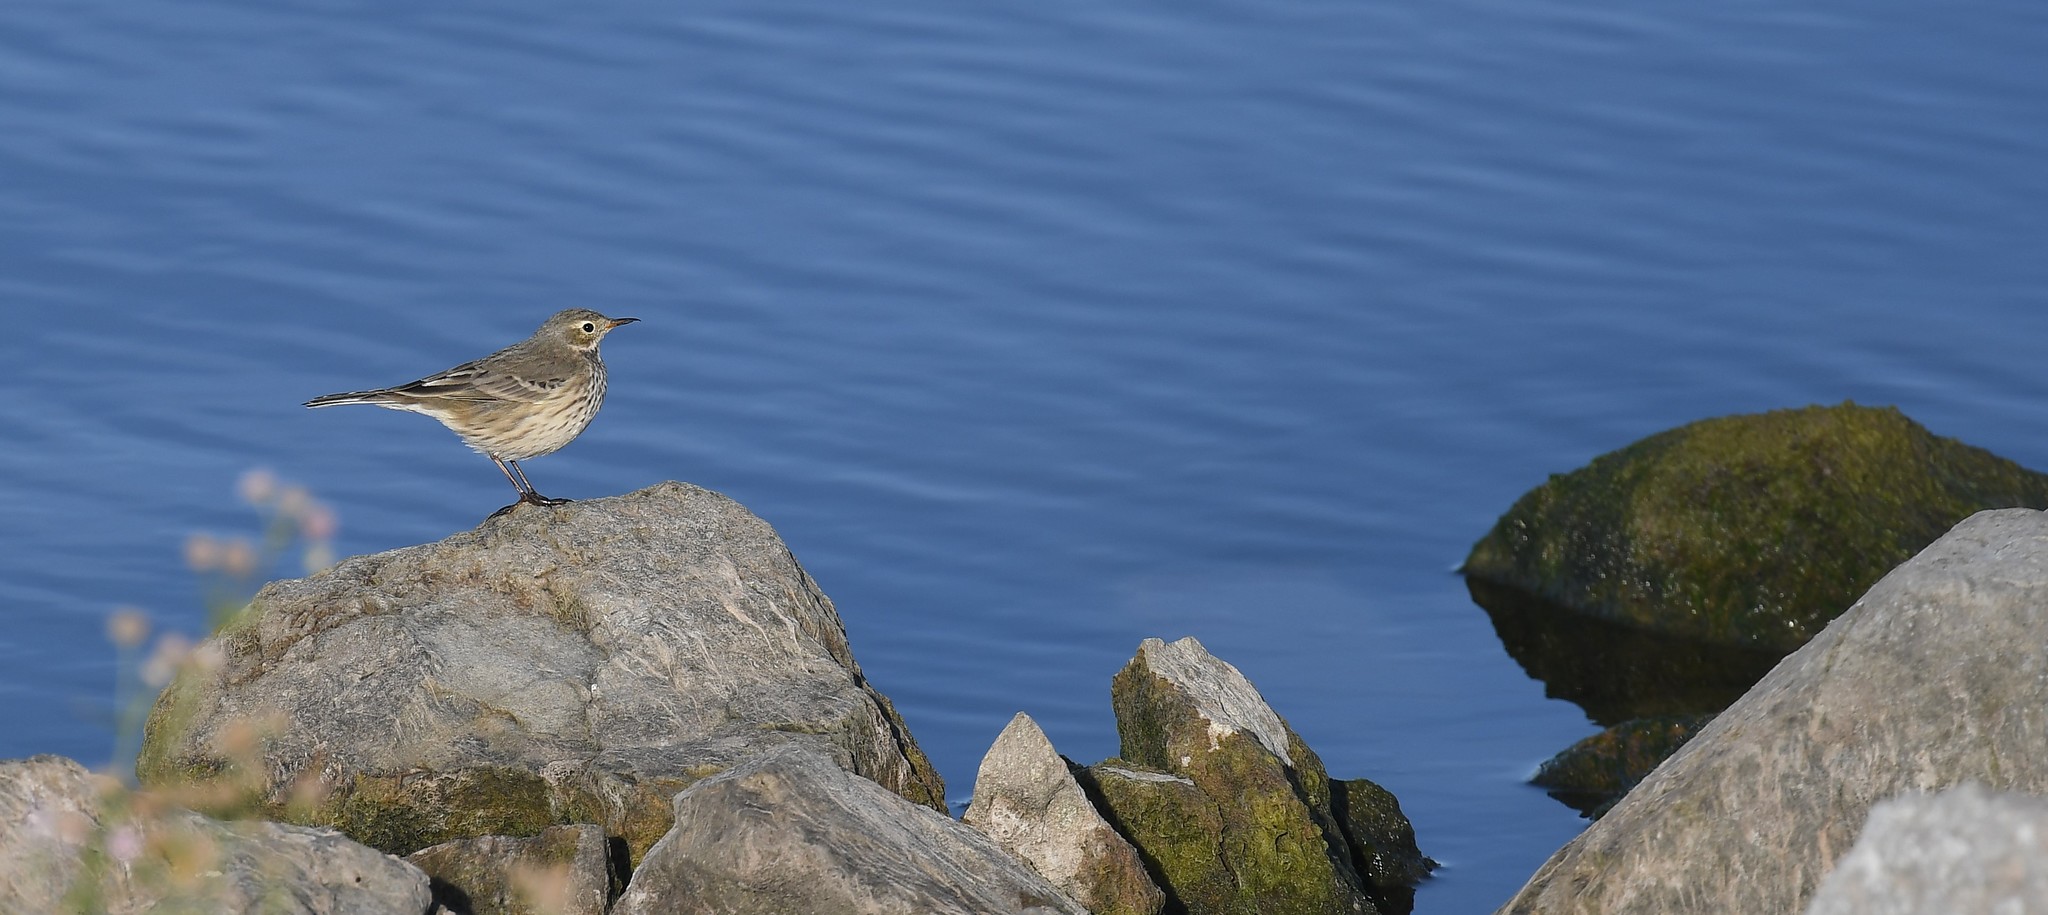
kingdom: Animalia
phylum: Chordata
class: Aves
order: Passeriformes
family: Motacillidae
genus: Anthus
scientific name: Anthus rubescens
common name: Buff-bellied pipit
